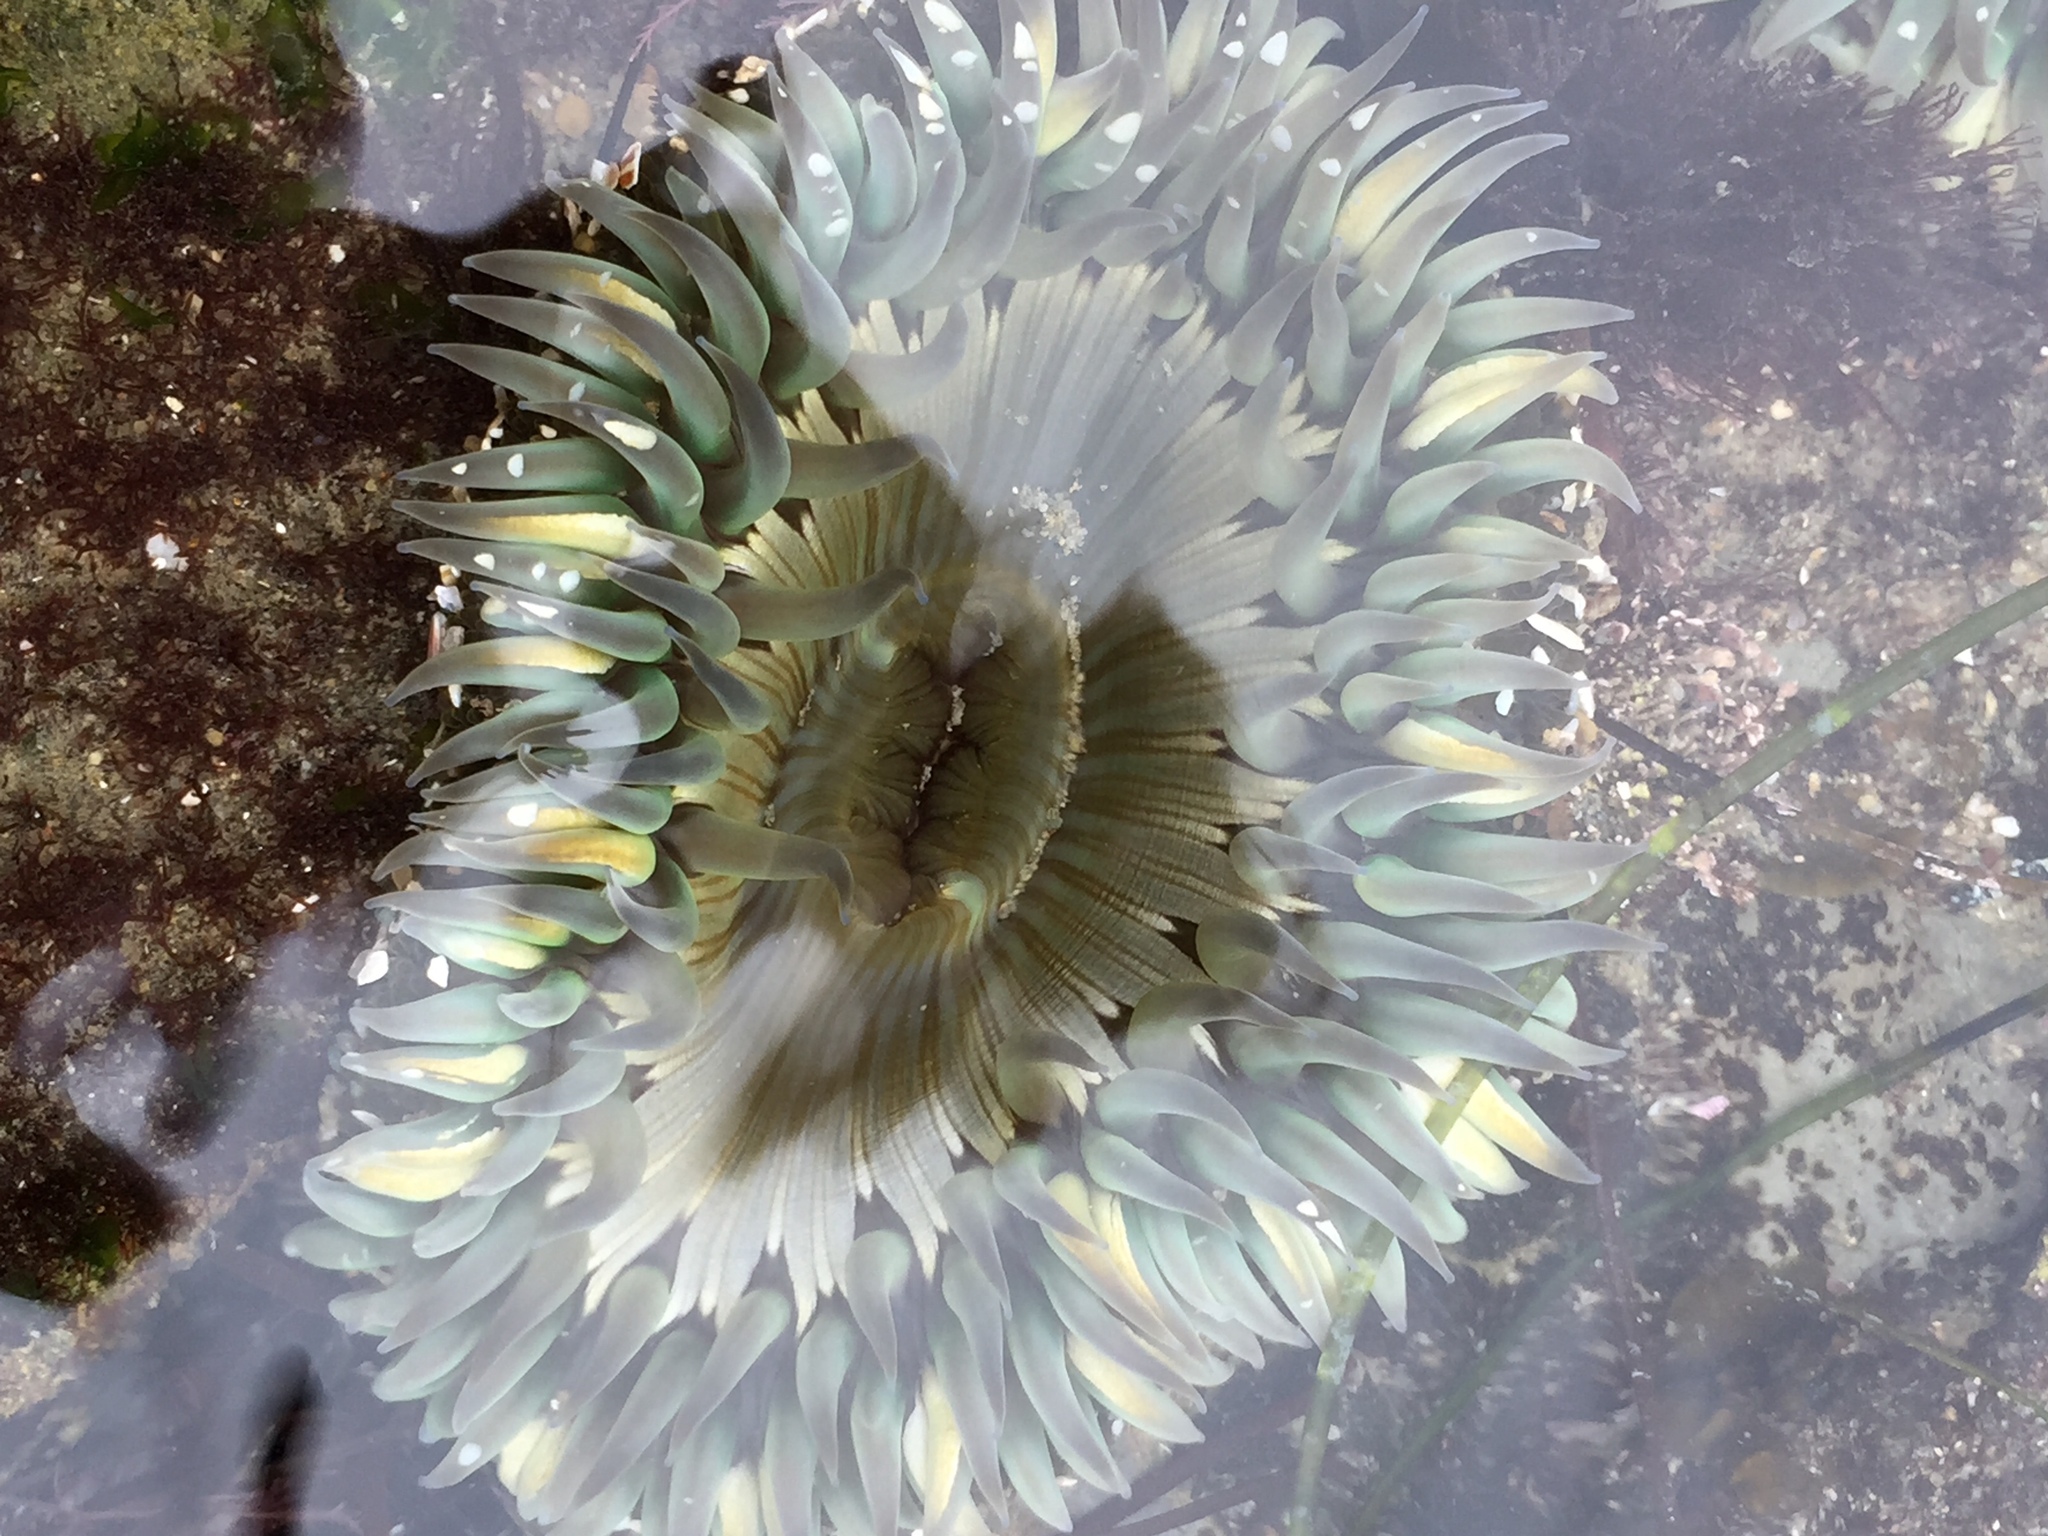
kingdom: Animalia
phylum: Cnidaria
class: Anthozoa
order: Actiniaria
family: Actiniidae
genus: Anthopleura
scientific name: Anthopleura sola
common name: Sun anemone
